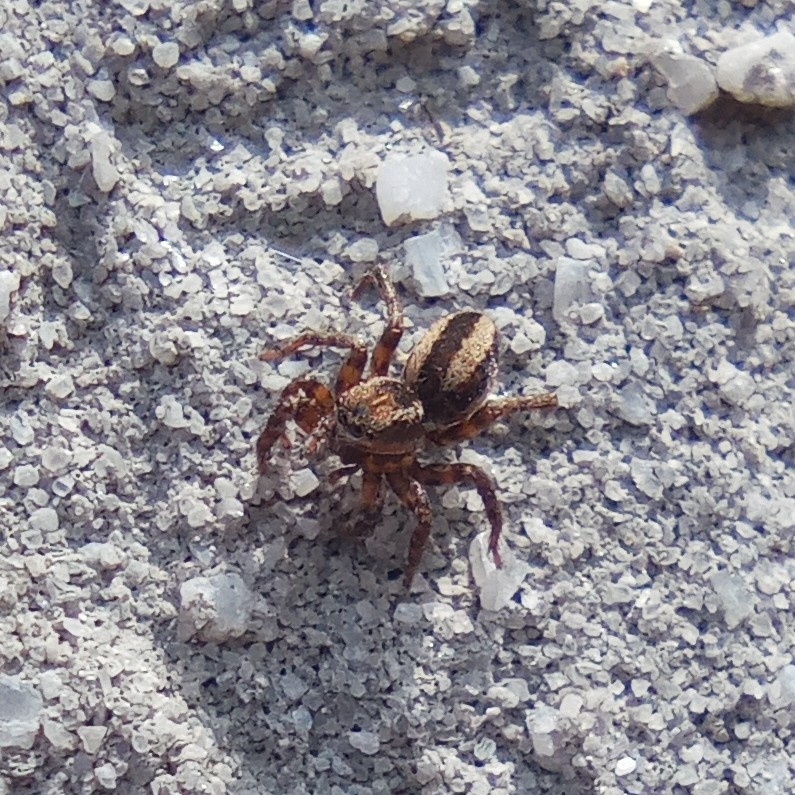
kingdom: Animalia
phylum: Arthropoda
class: Arachnida
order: Araneae
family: Salticidae
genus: Phlegra
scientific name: Phlegra fasciata
